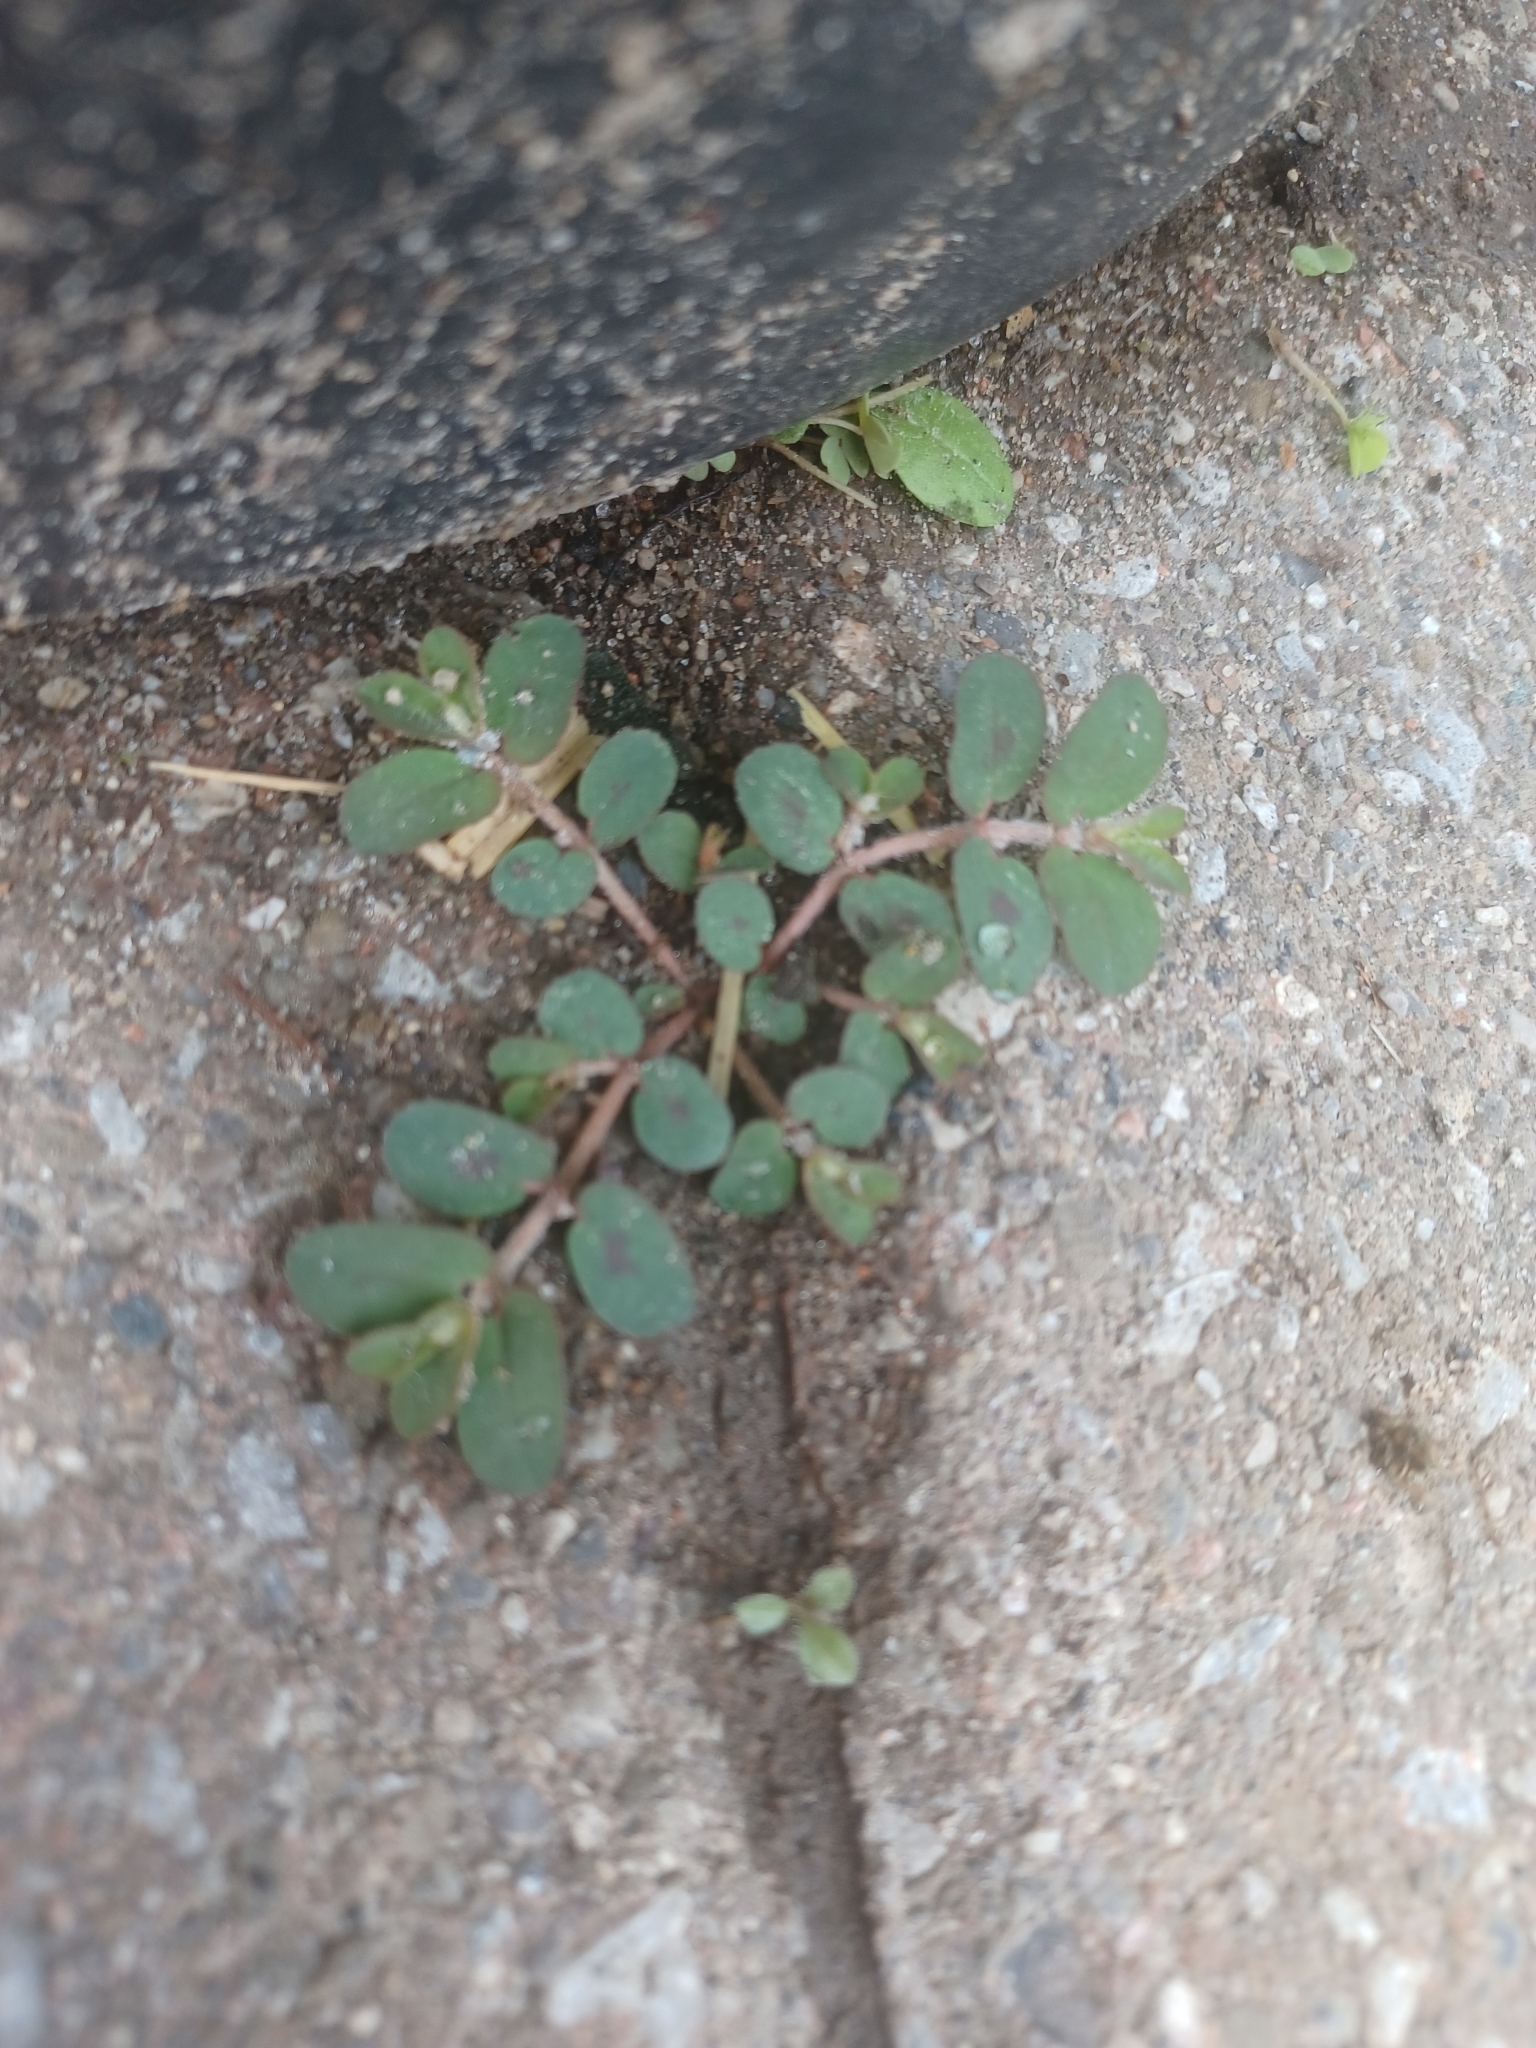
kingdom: Plantae
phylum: Tracheophyta
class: Magnoliopsida
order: Malpighiales
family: Euphorbiaceae
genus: Euphorbia
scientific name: Euphorbia maculata
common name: Spotted spurge
